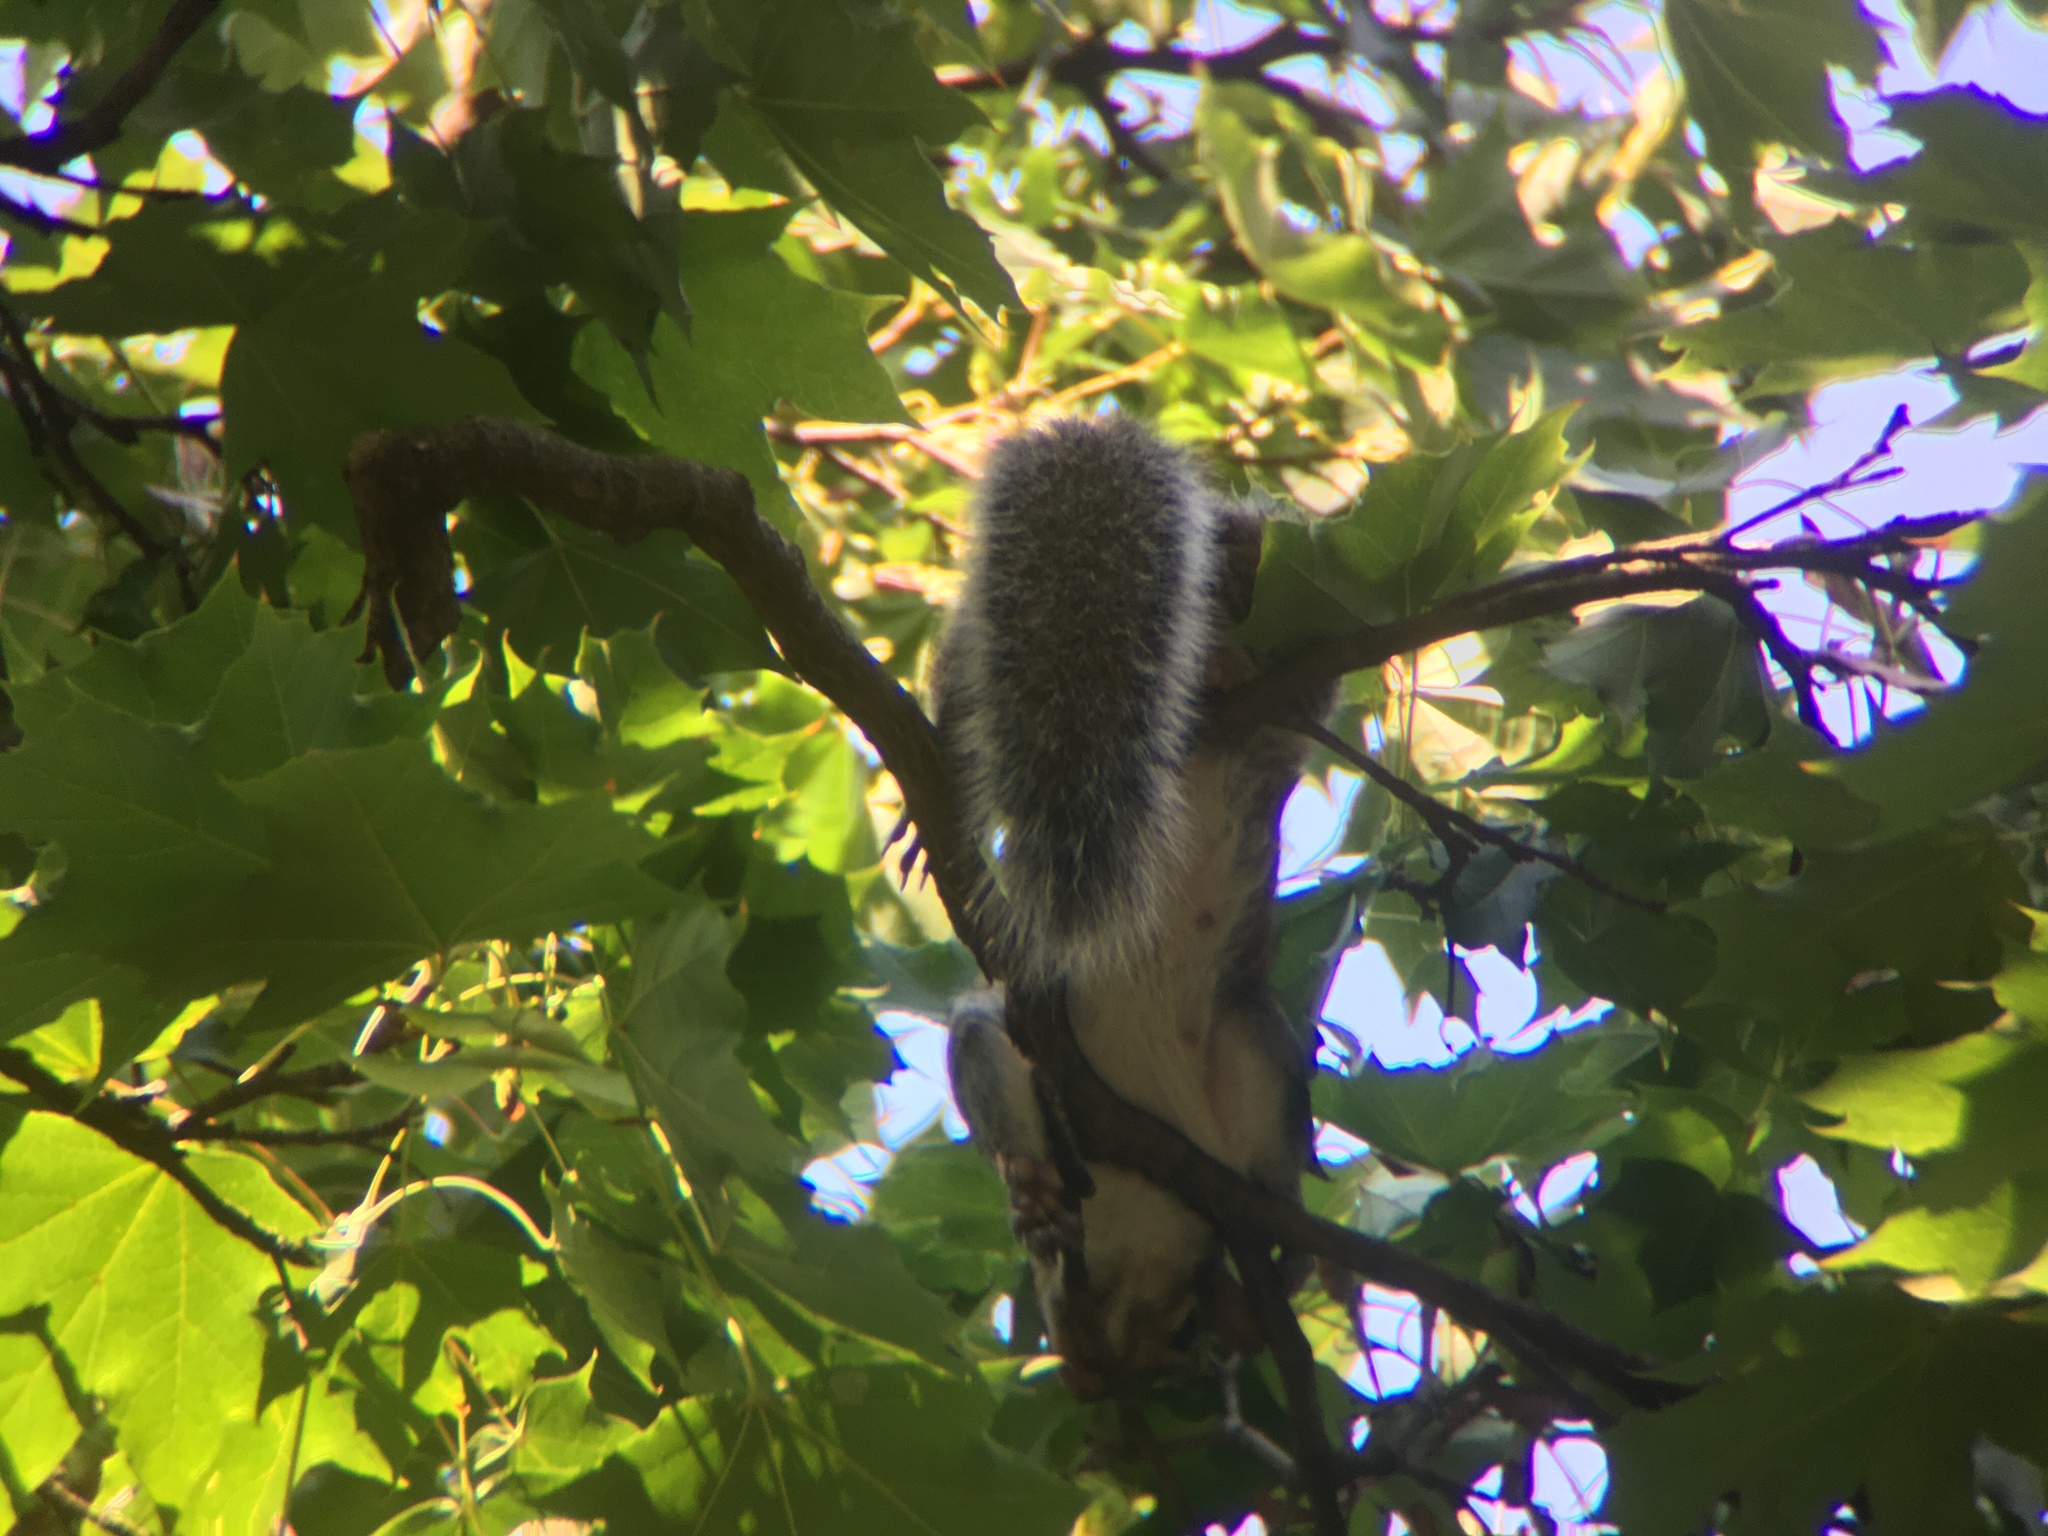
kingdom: Animalia
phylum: Chordata
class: Mammalia
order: Rodentia
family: Sciuridae
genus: Sciurus
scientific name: Sciurus carolinensis
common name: Eastern gray squirrel
